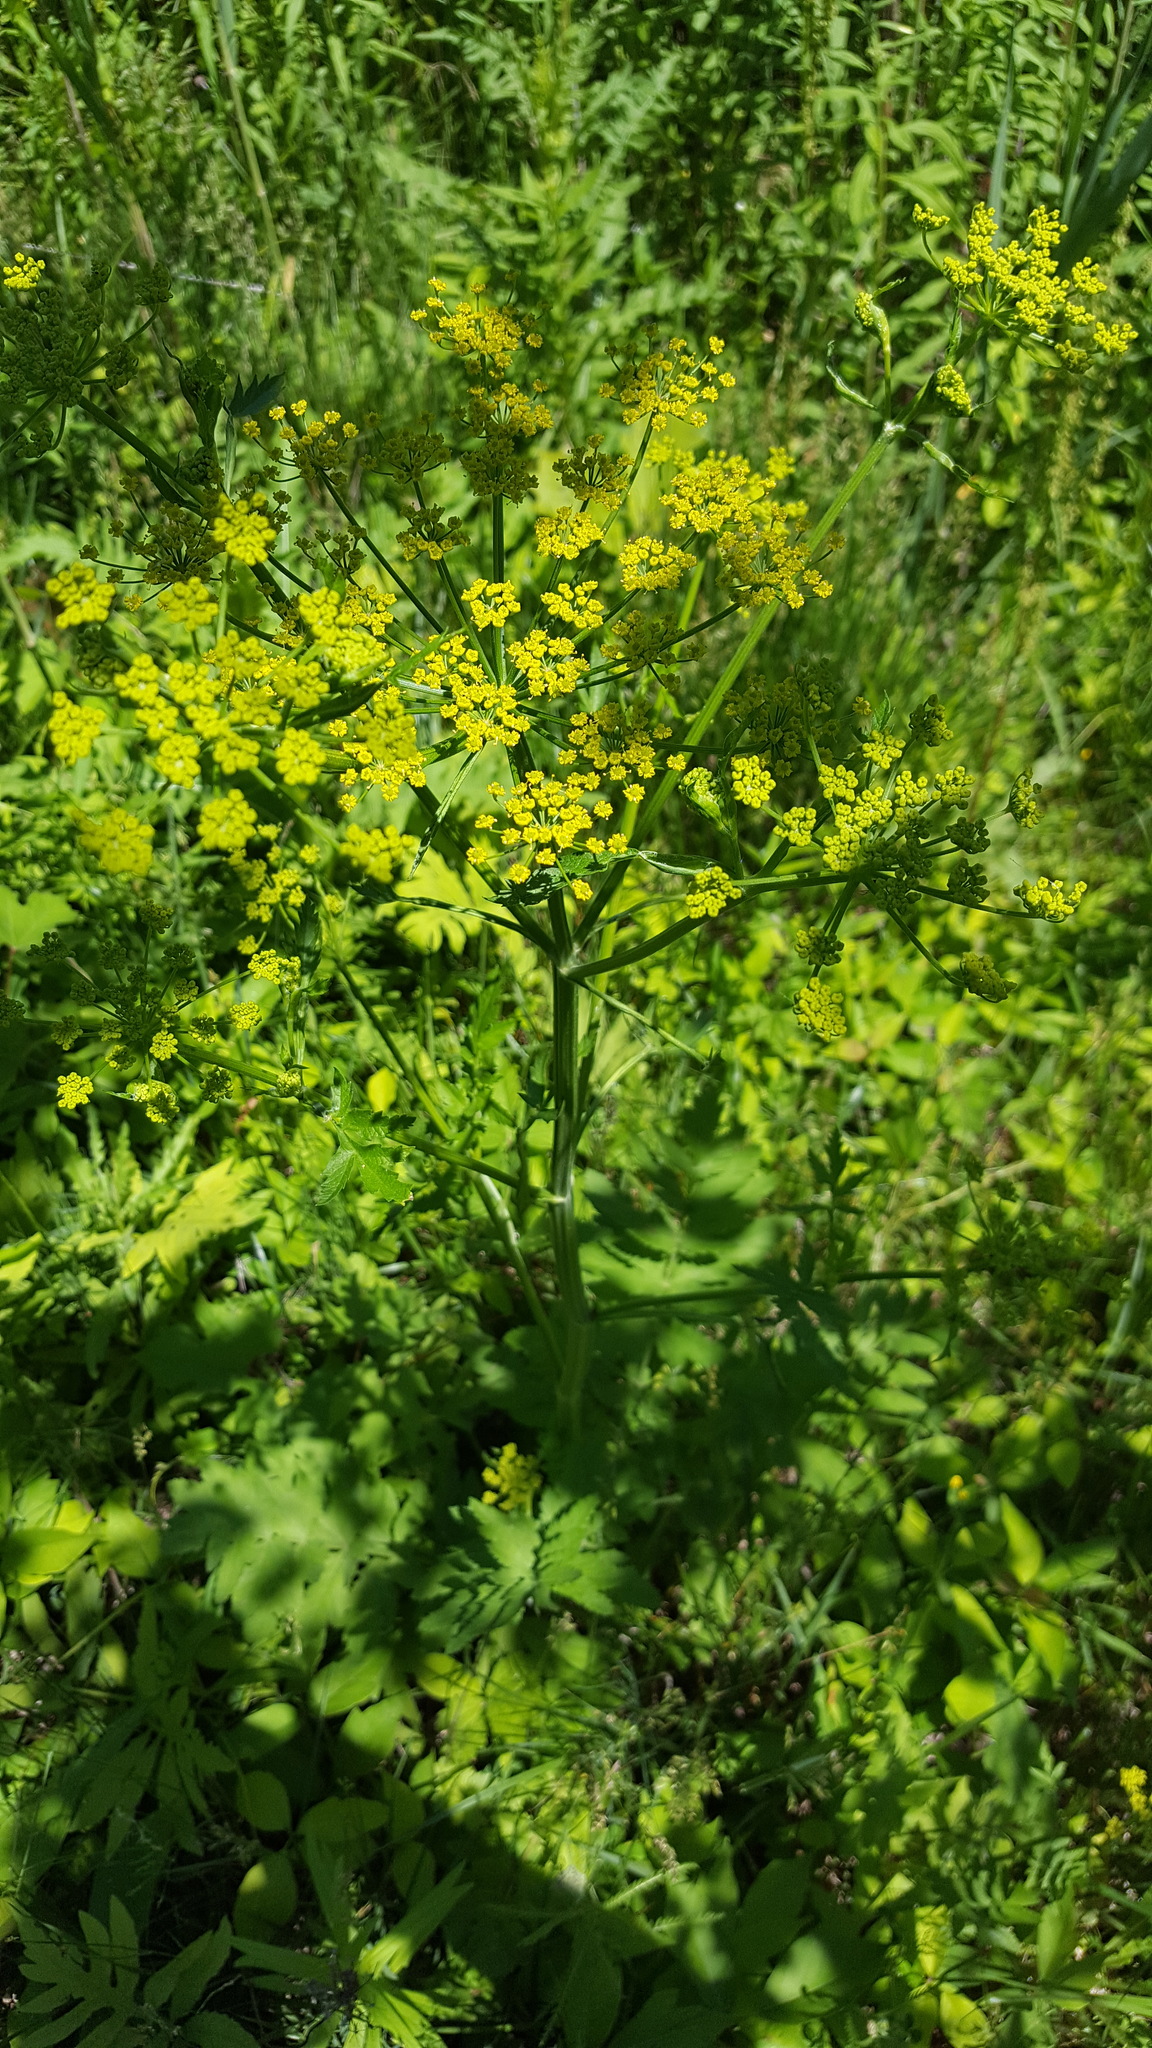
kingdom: Plantae
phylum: Tracheophyta
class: Magnoliopsida
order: Apiales
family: Apiaceae
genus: Pastinaca
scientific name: Pastinaca sativa
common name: Wild parsnip
